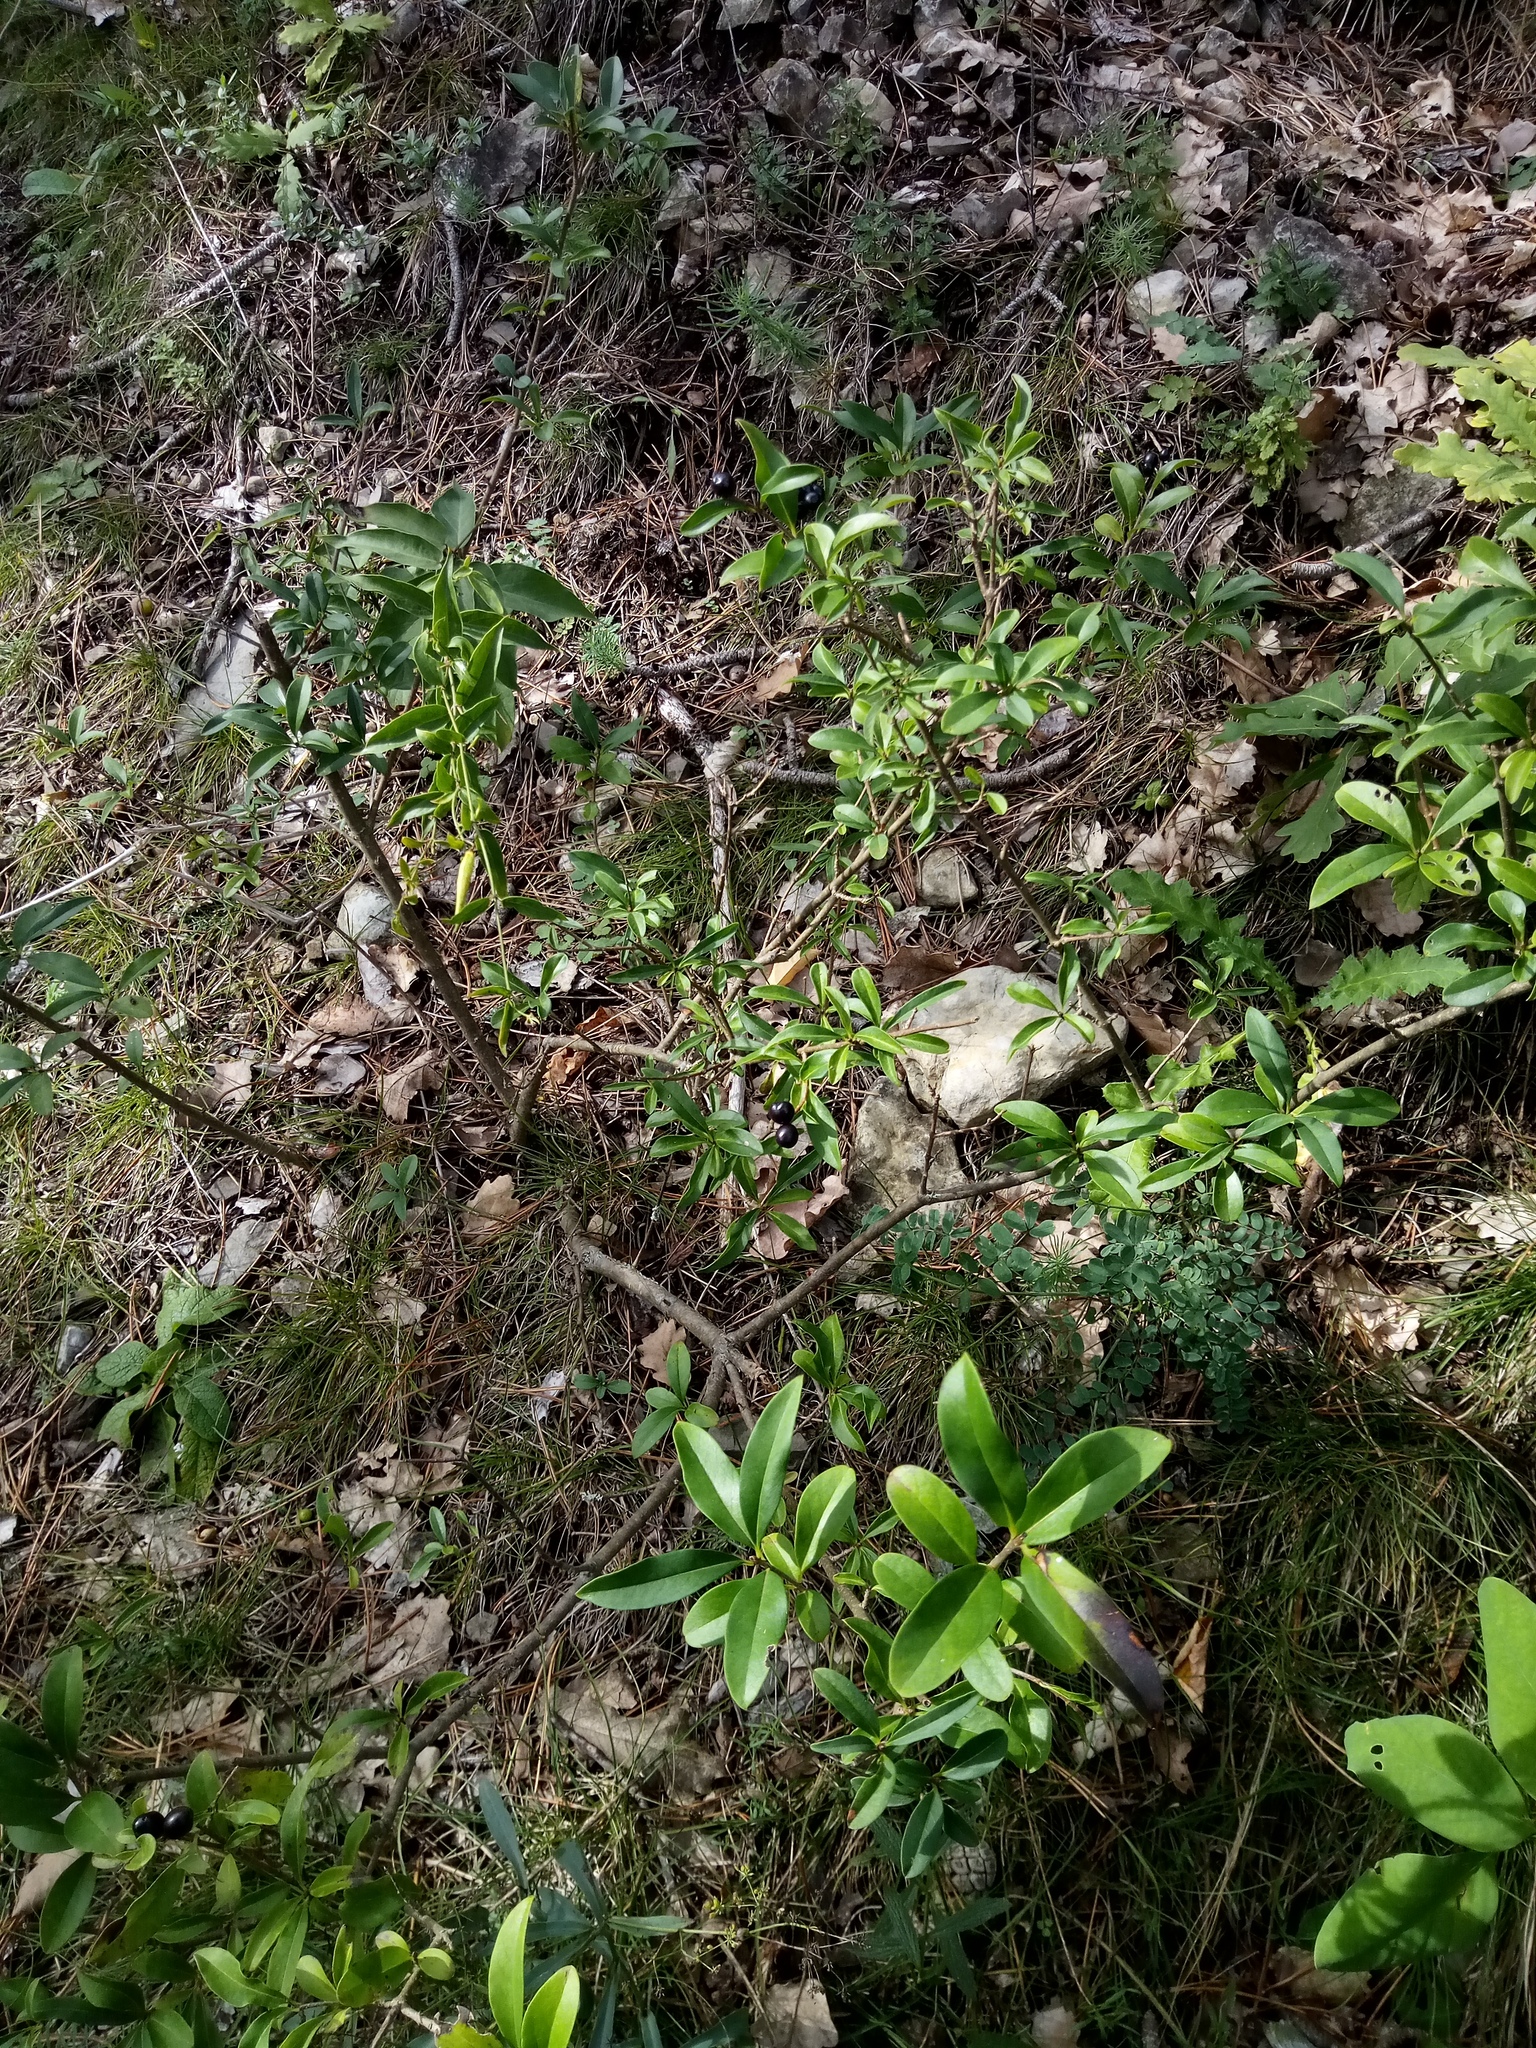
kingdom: Plantae
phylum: Tracheophyta
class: Magnoliopsida
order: Lamiales
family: Oleaceae
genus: Ligustrum
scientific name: Ligustrum vulgare
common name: Wild privet
